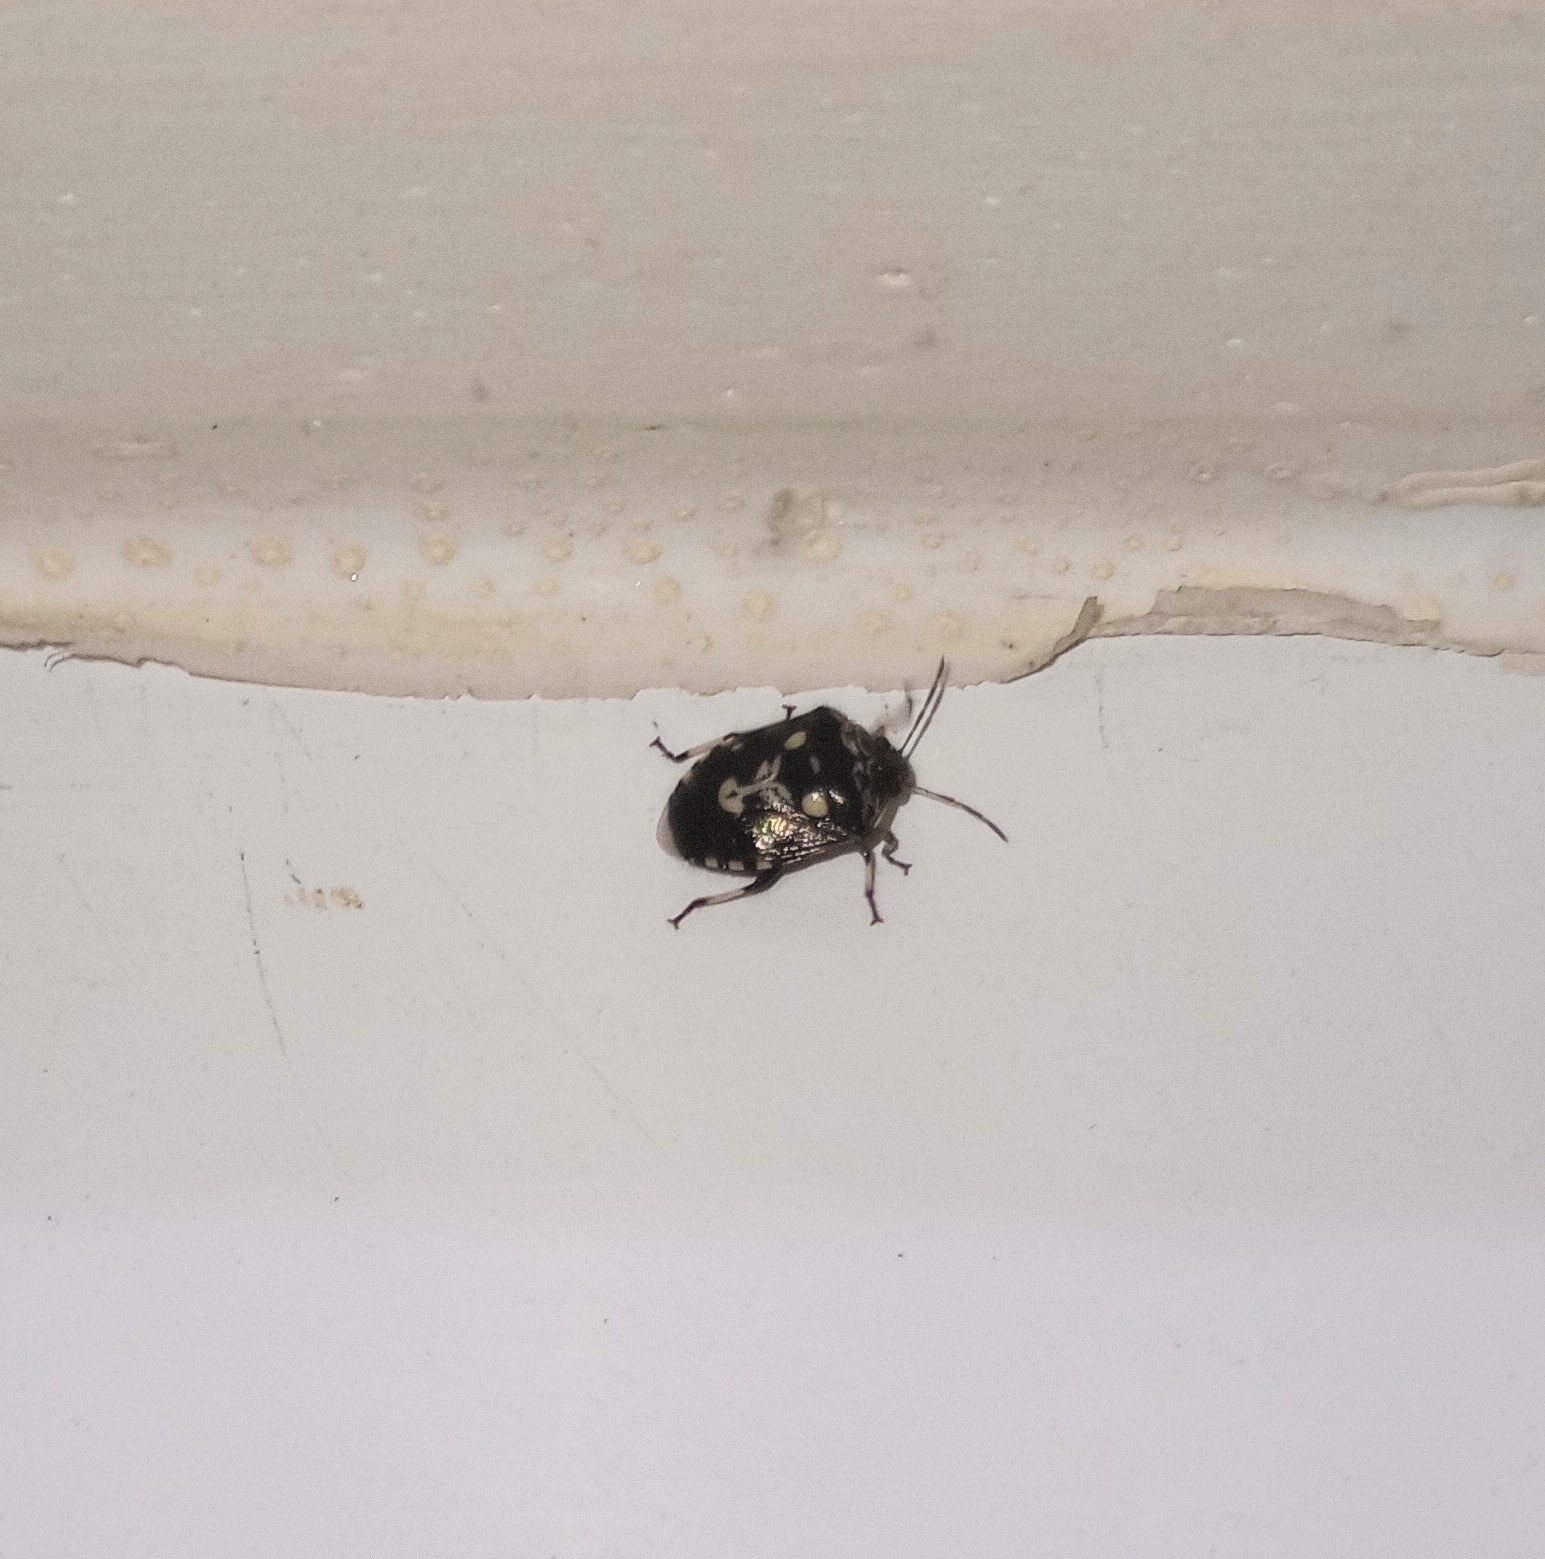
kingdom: Animalia
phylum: Arthropoda
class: Insecta
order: Hemiptera
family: Pentatomidae
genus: Menida
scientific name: Menida formosa
